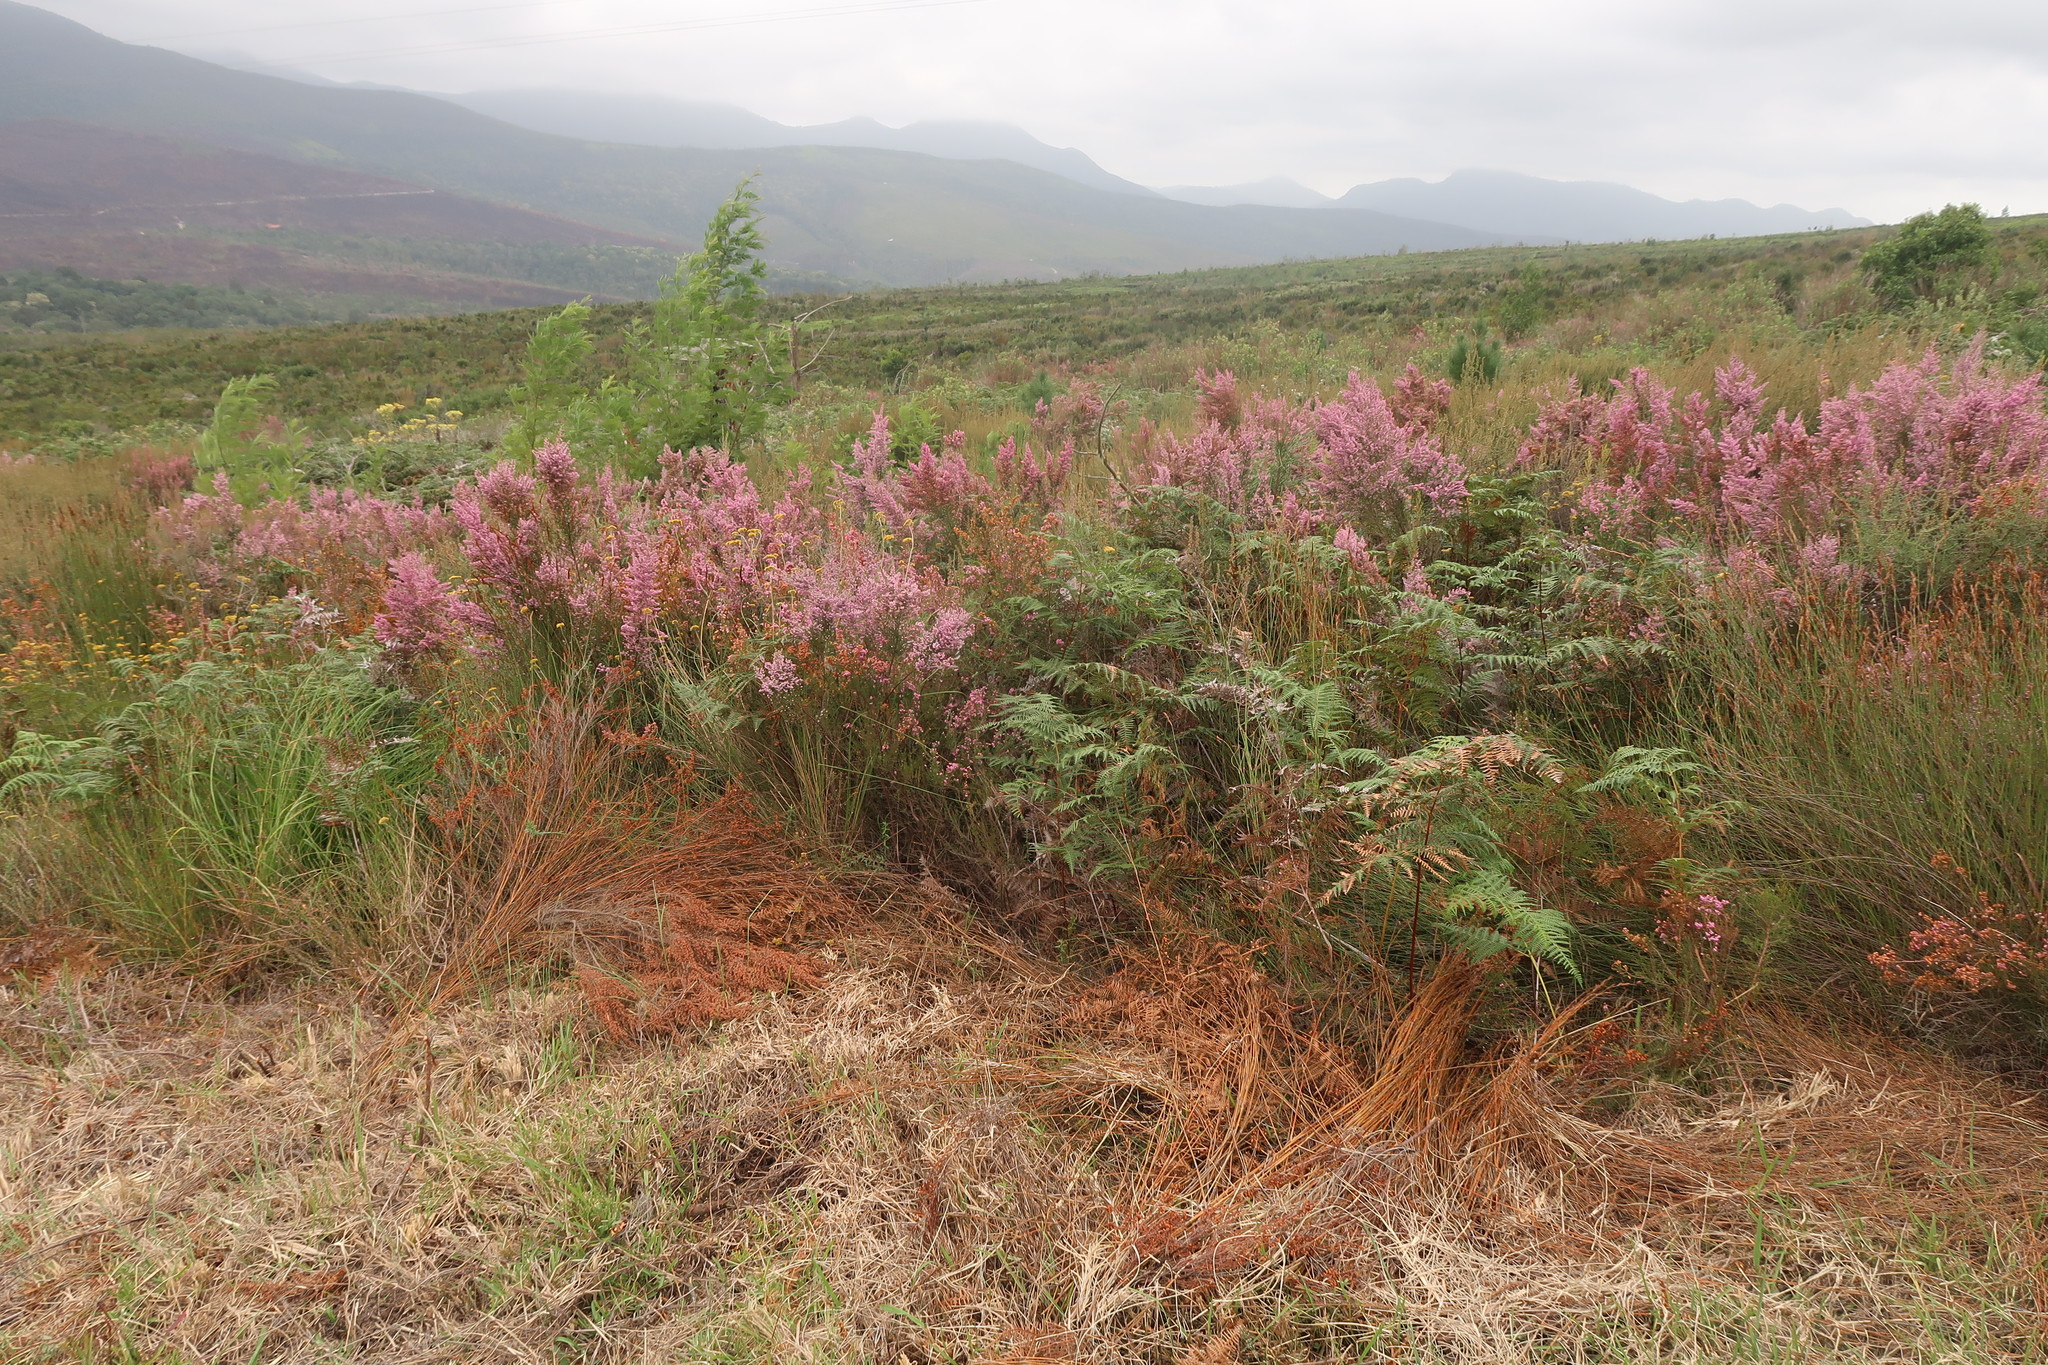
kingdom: Plantae
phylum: Tracheophyta
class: Magnoliopsida
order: Ericales
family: Ericaceae
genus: Erica
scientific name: Erica sparsa
